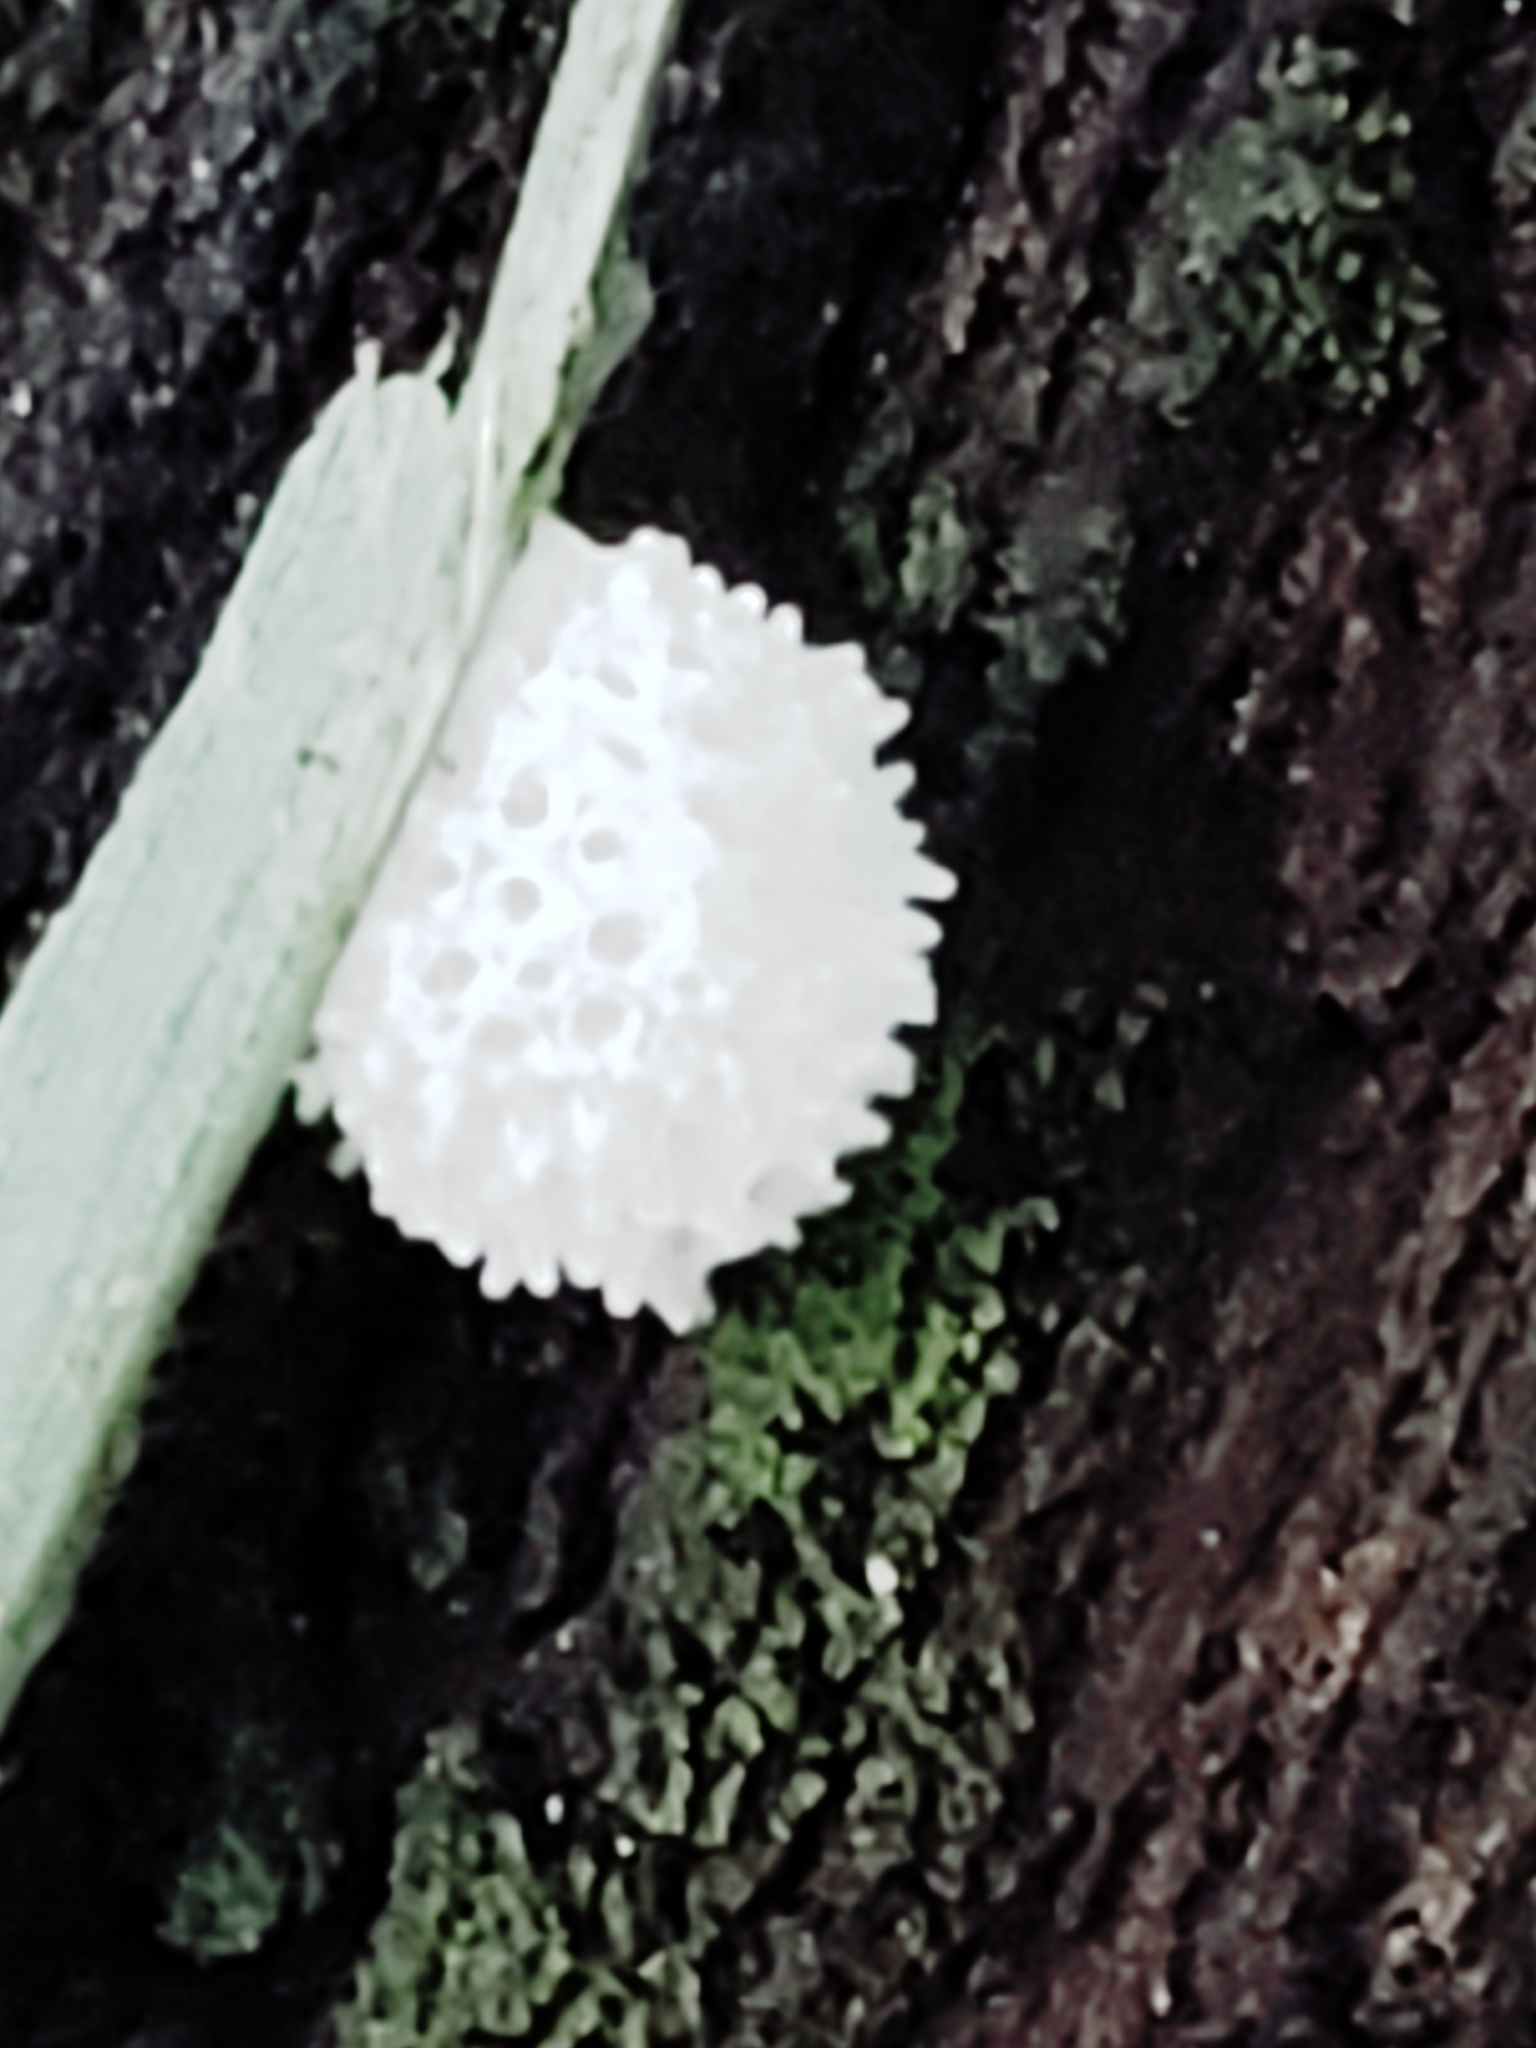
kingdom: Protozoa
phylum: Mycetozoa
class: Protosteliomycetes
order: Ceratiomyxales
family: Ceratiomyxaceae
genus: Ceratiomyxa
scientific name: Ceratiomyxa fruticulosa
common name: Honeycomb coral slime mold
